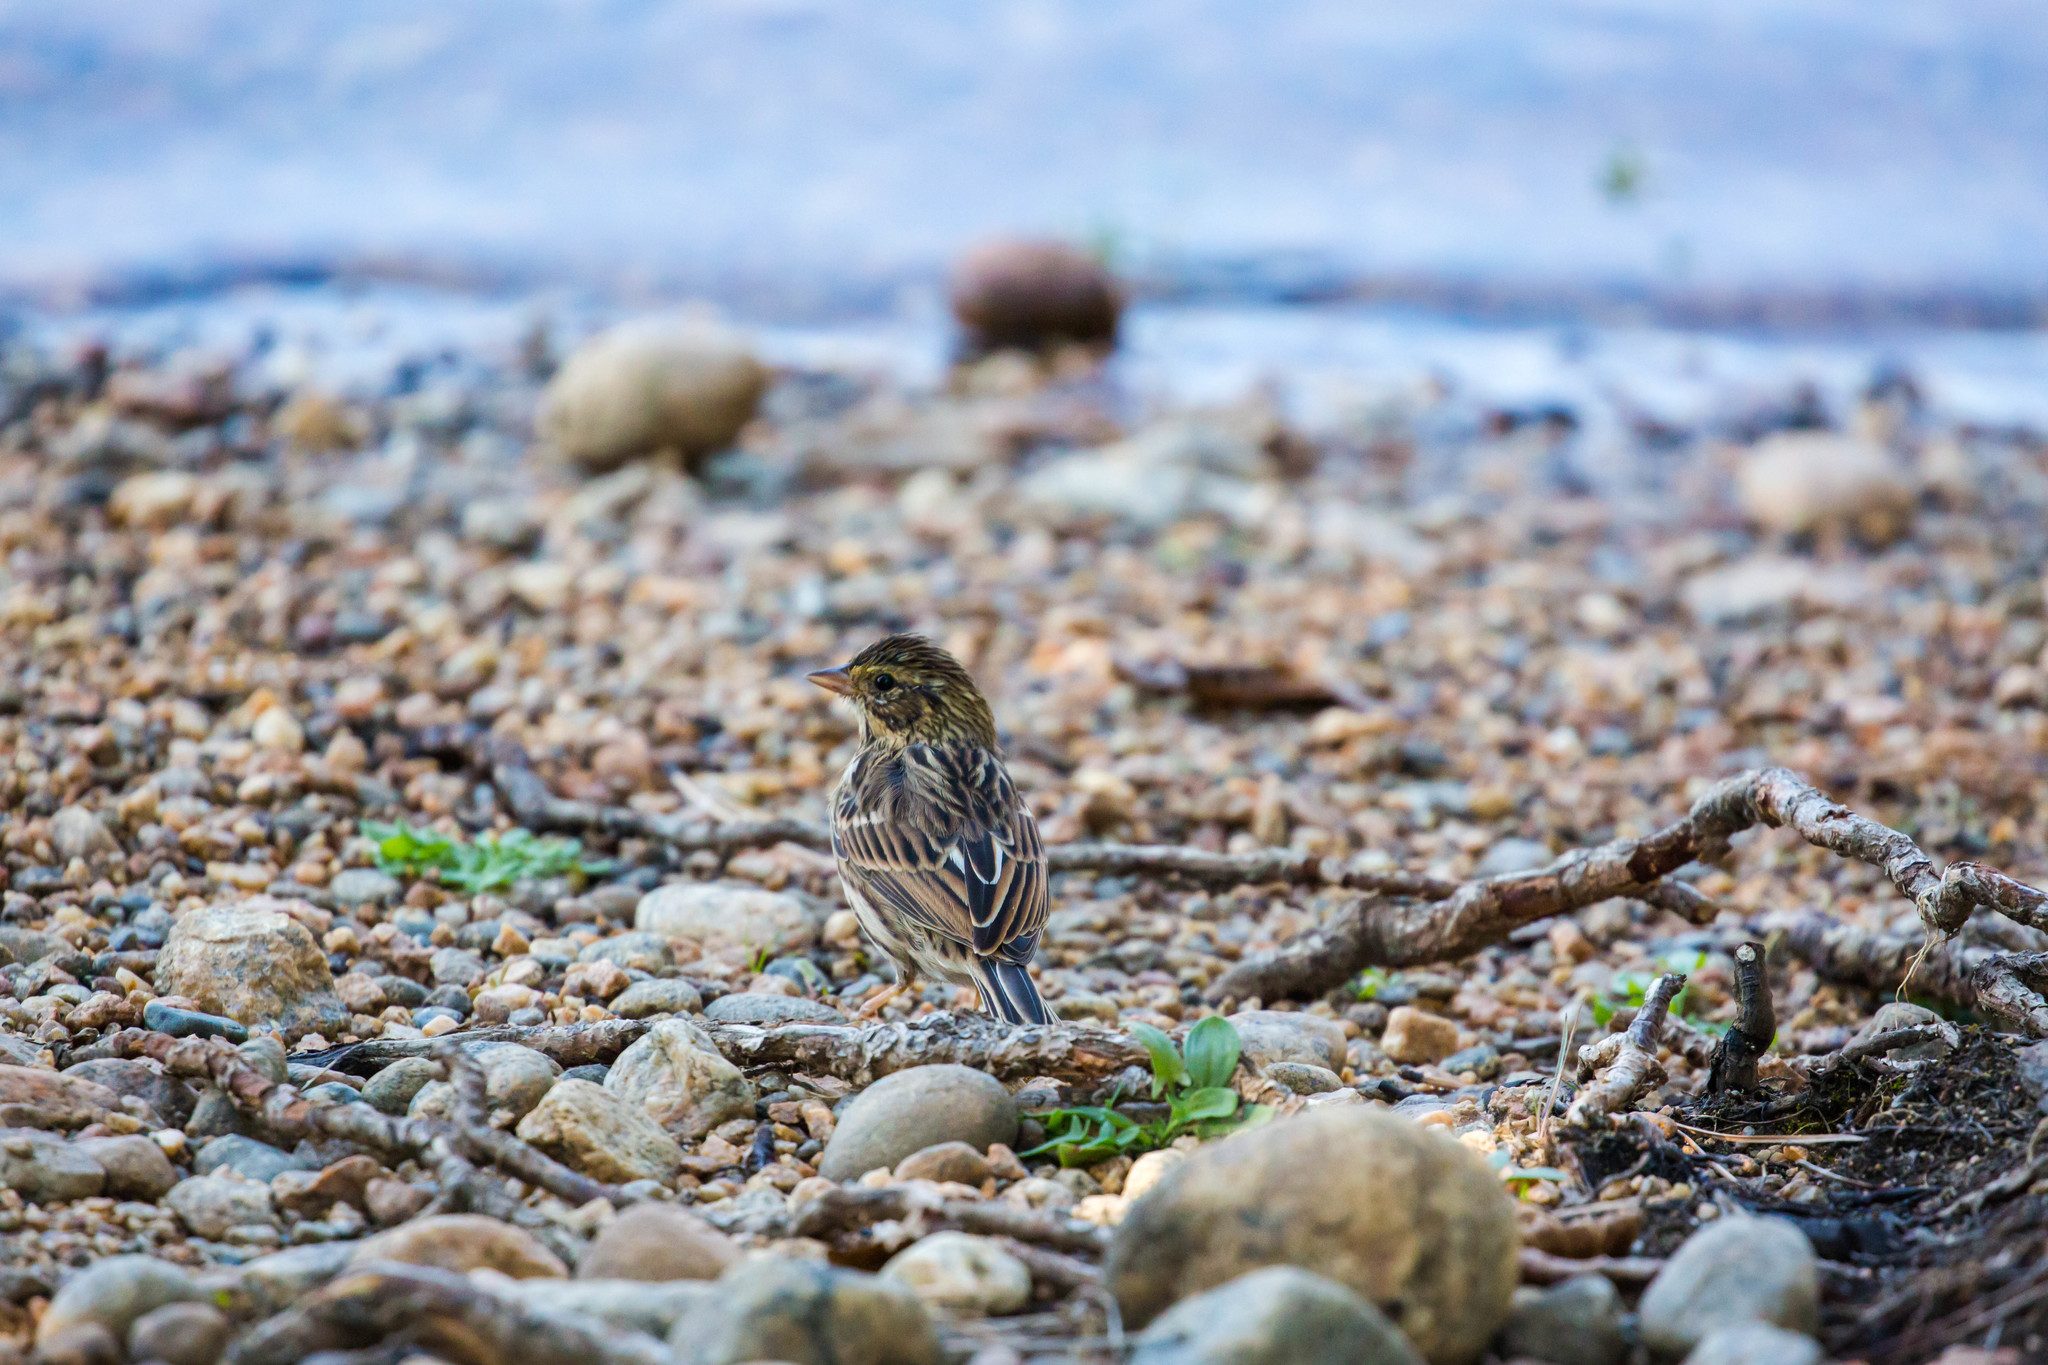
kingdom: Animalia
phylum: Chordata
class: Aves
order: Passeriformes
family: Passerellidae
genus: Passerculus
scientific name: Passerculus sandwichensis
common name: Savannah sparrow
